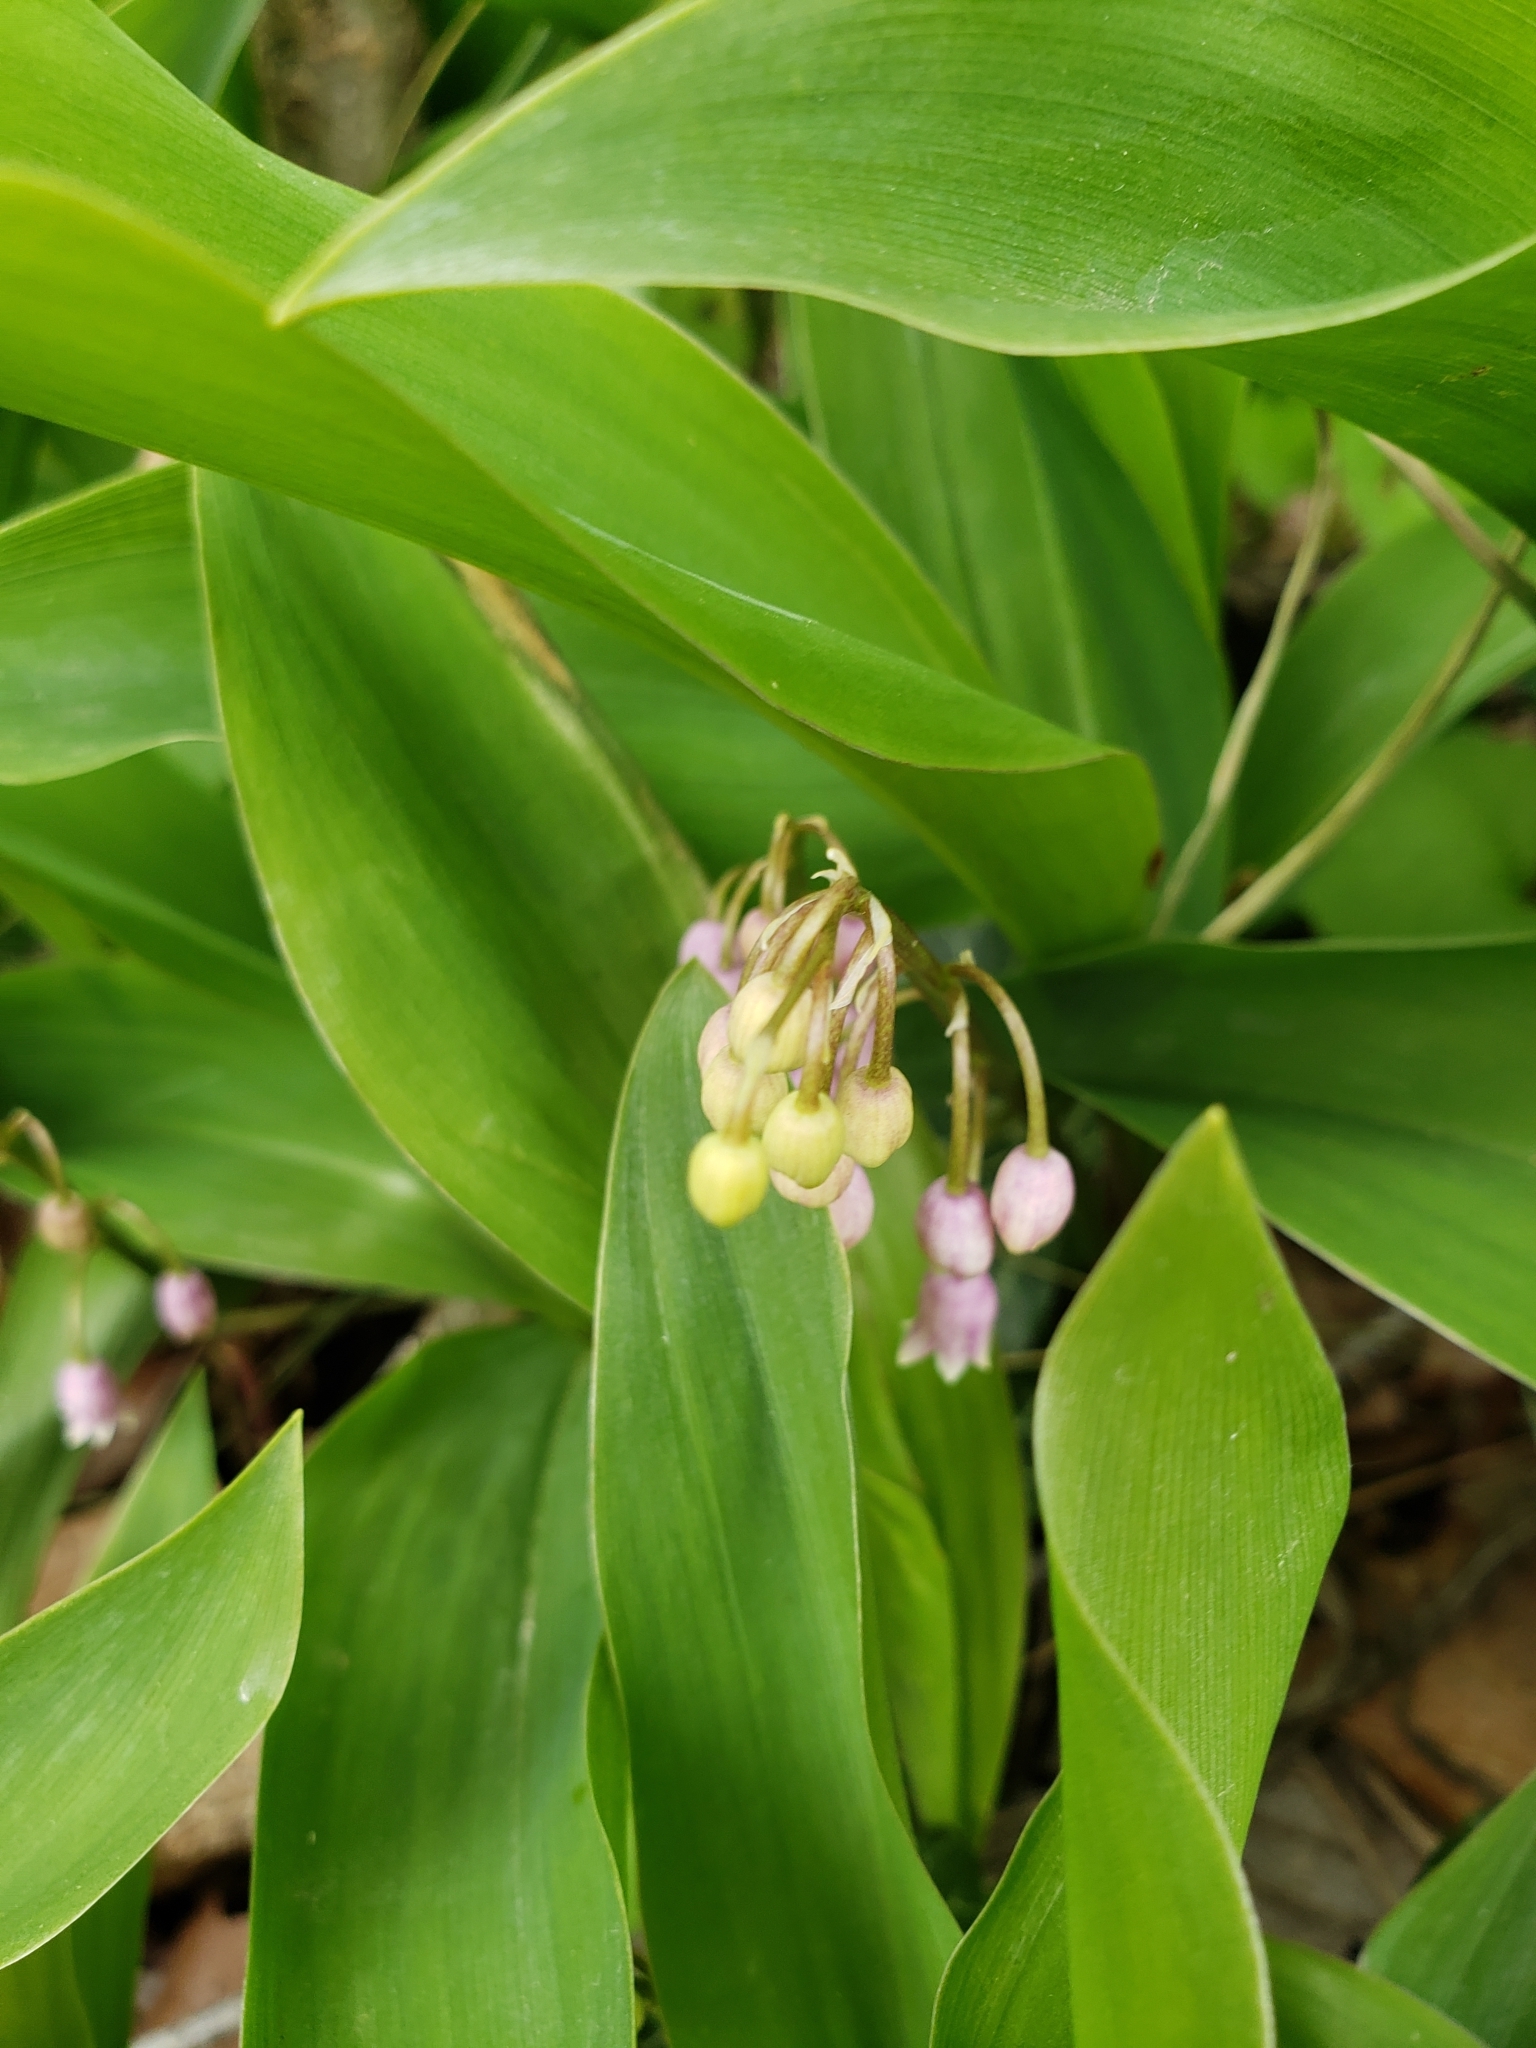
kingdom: Plantae
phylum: Tracheophyta
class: Liliopsida
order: Asparagales
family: Asparagaceae
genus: Convallaria
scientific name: Convallaria majalis
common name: Lily-of-the-valley
